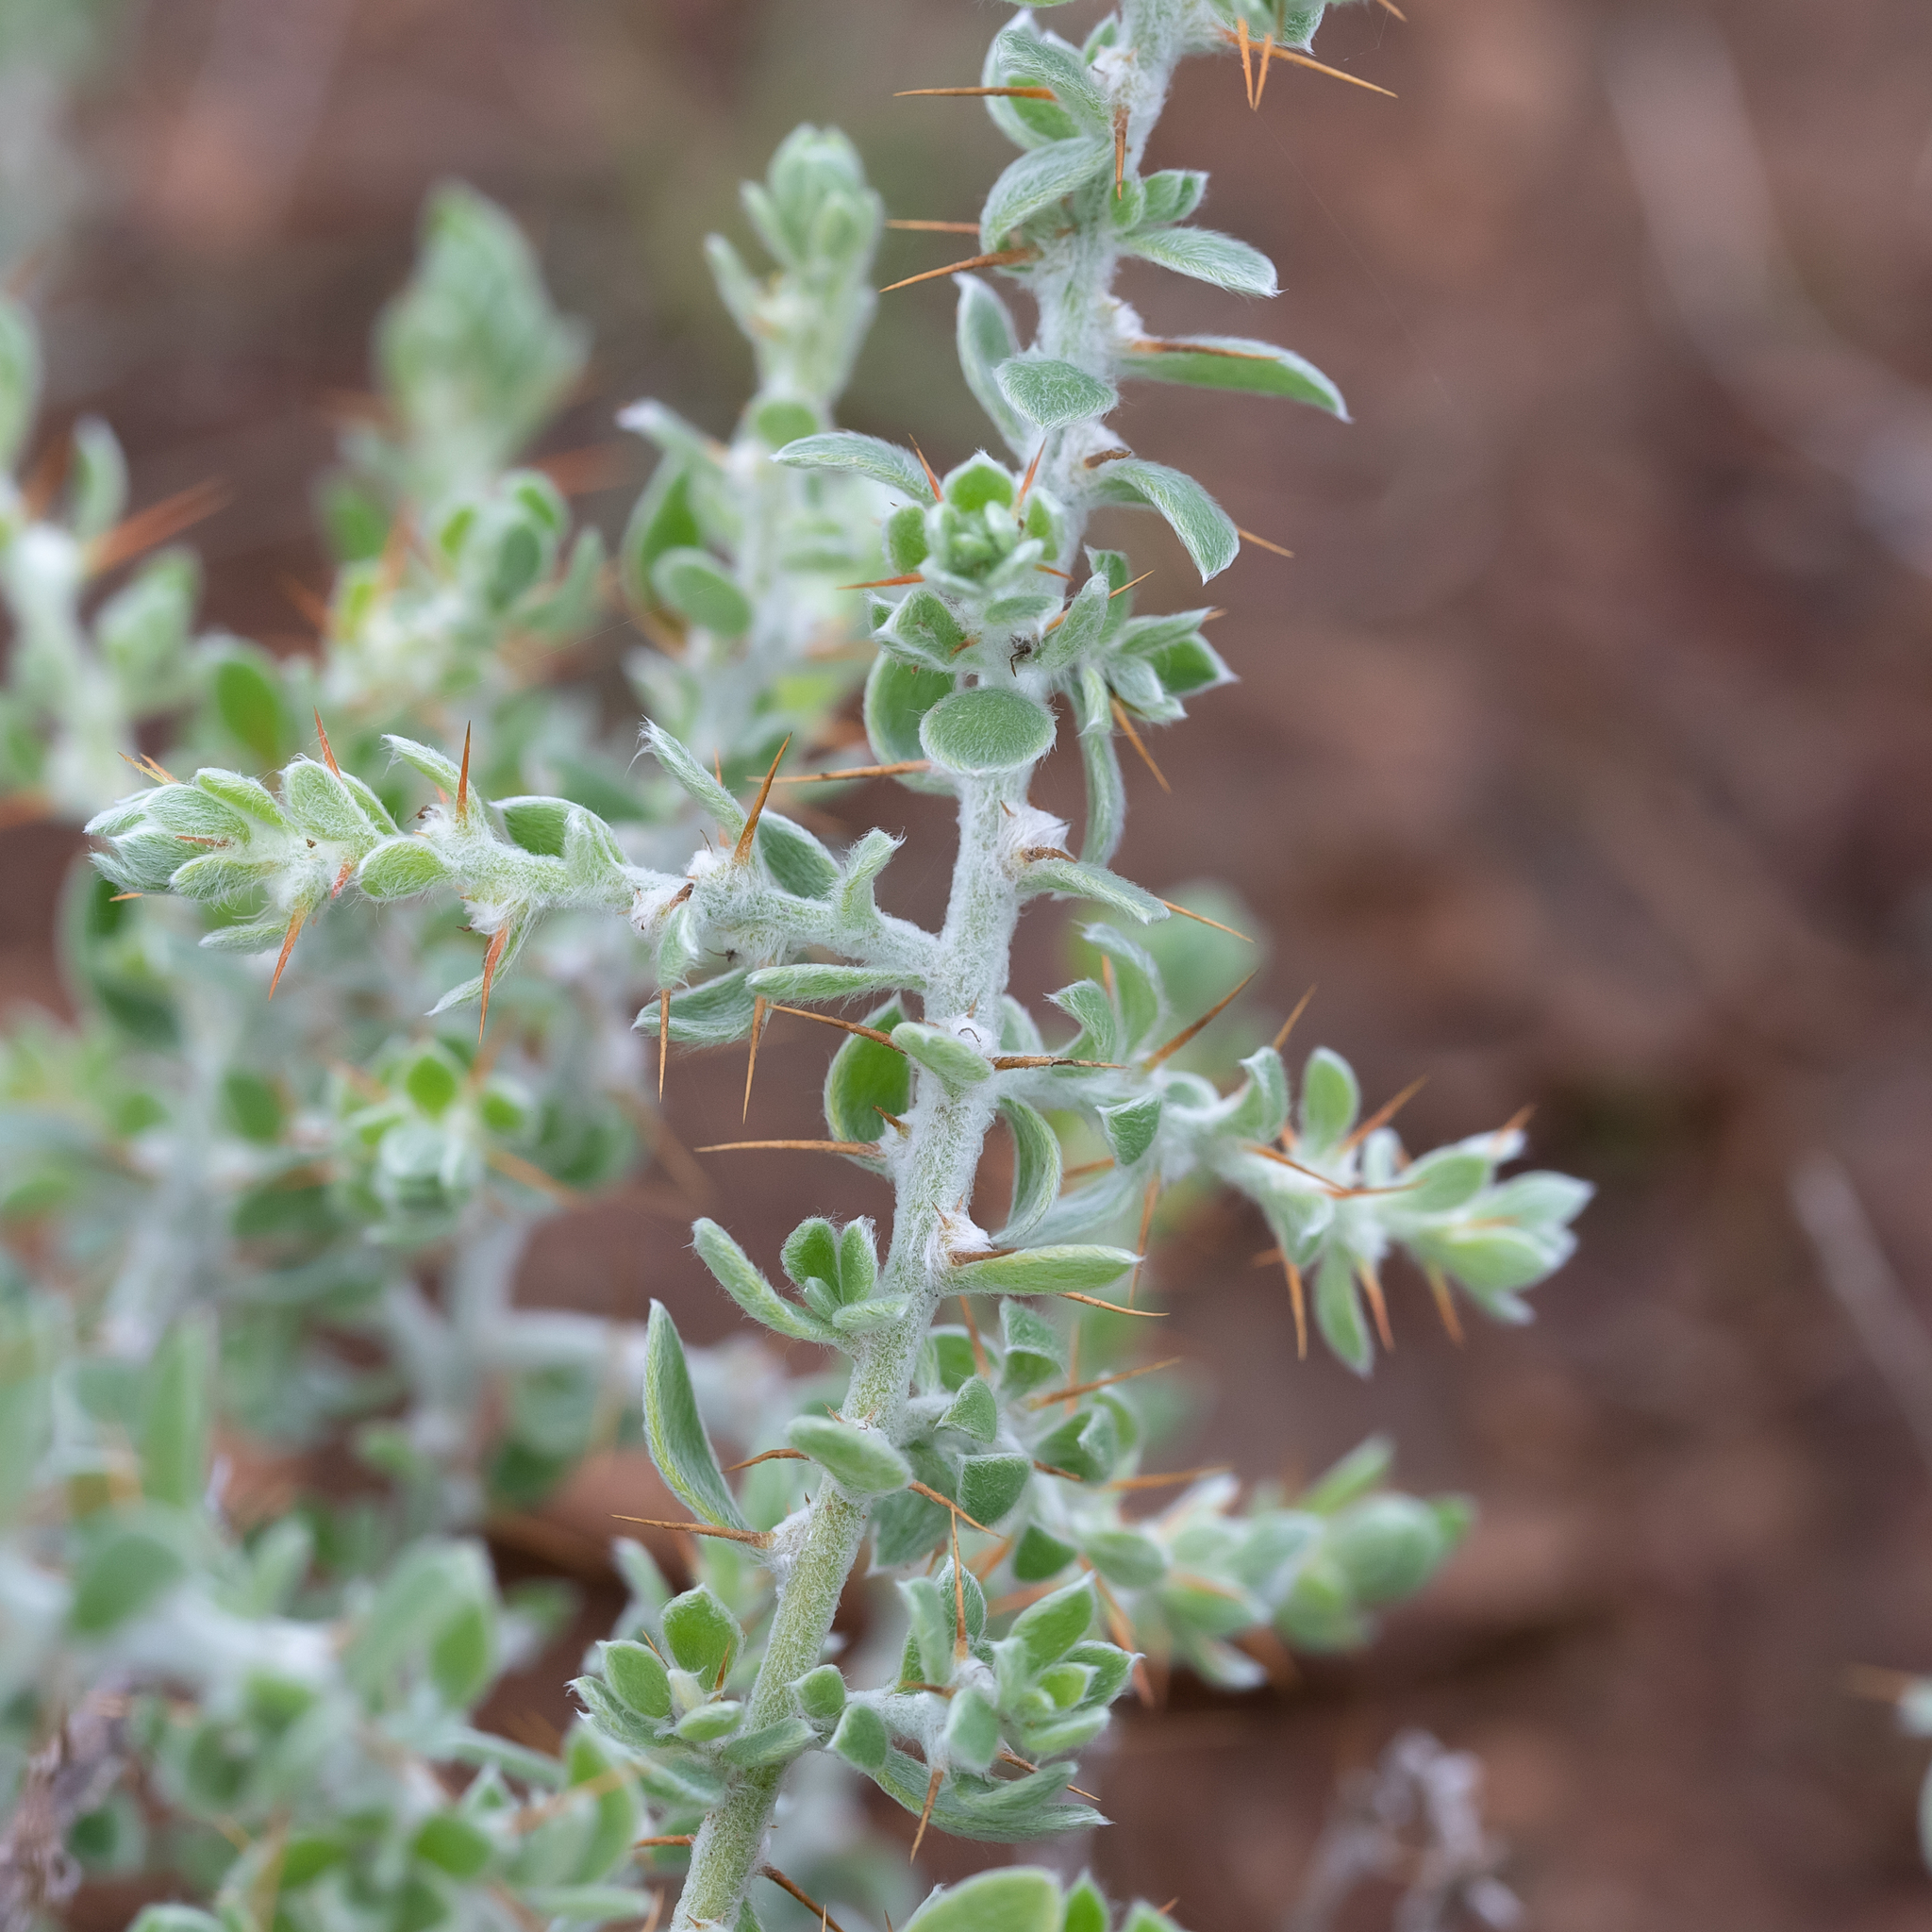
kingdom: Plantae
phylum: Tracheophyta
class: Magnoliopsida
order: Caryophyllales
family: Amaranthaceae
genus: Sclerolaena
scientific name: Sclerolaena birchii
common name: Galvanized bur
